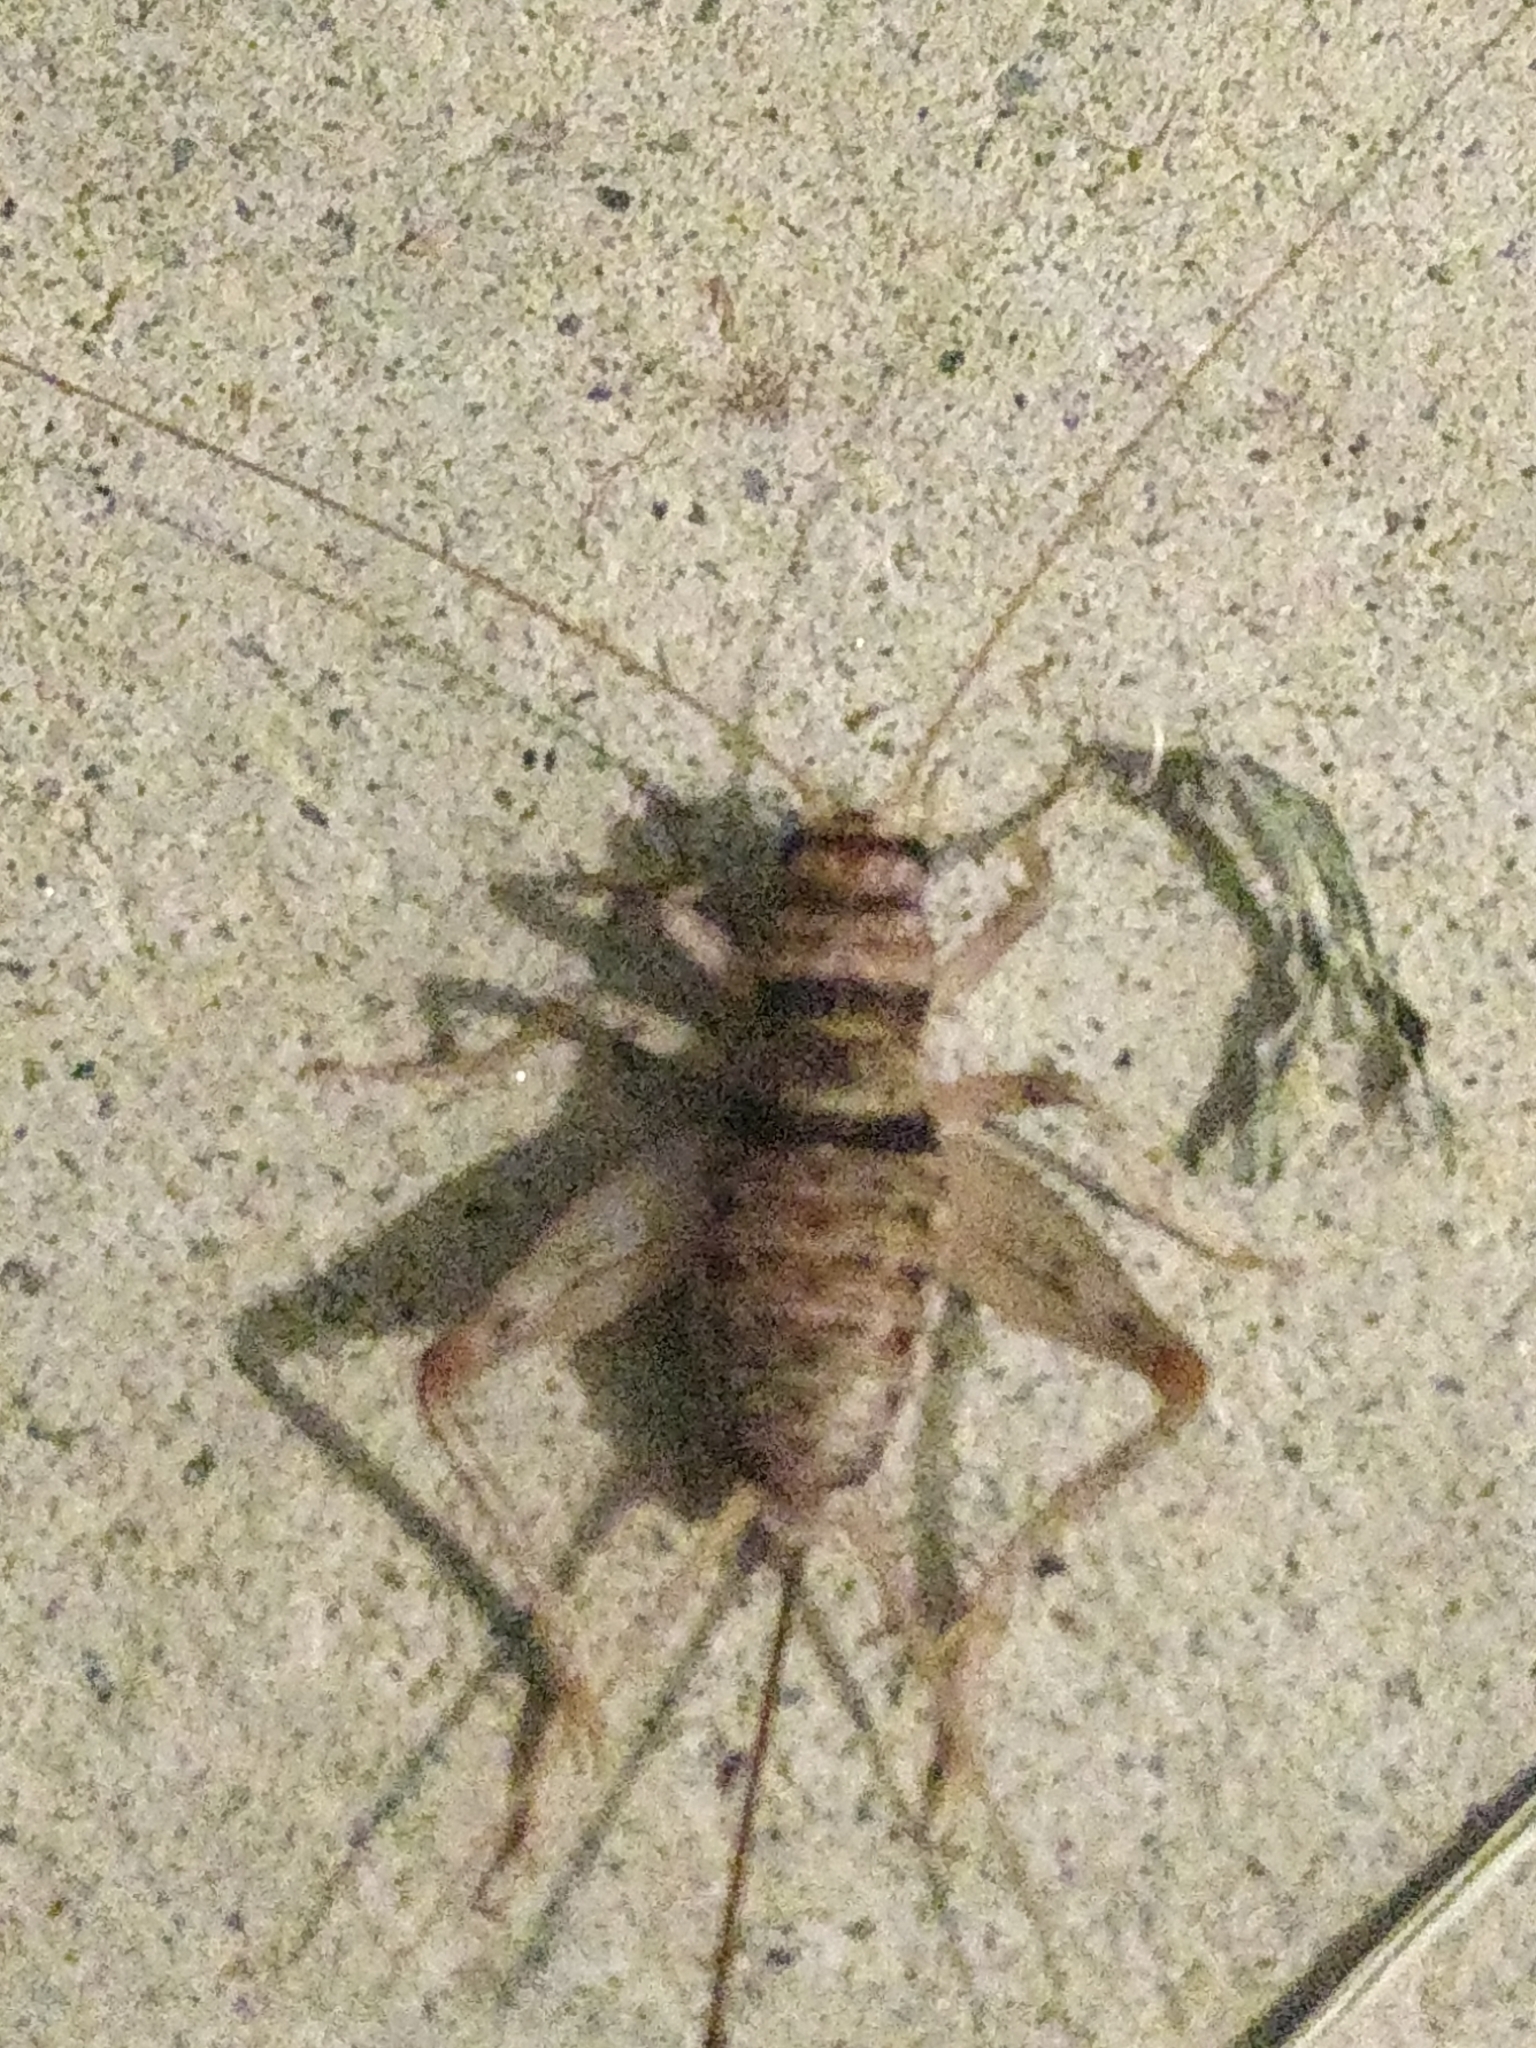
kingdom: Animalia
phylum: Arthropoda
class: Insecta
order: Orthoptera
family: Gryllidae
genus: Gryllodes
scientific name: Gryllodes sigillatus
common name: Tropical house cricket
